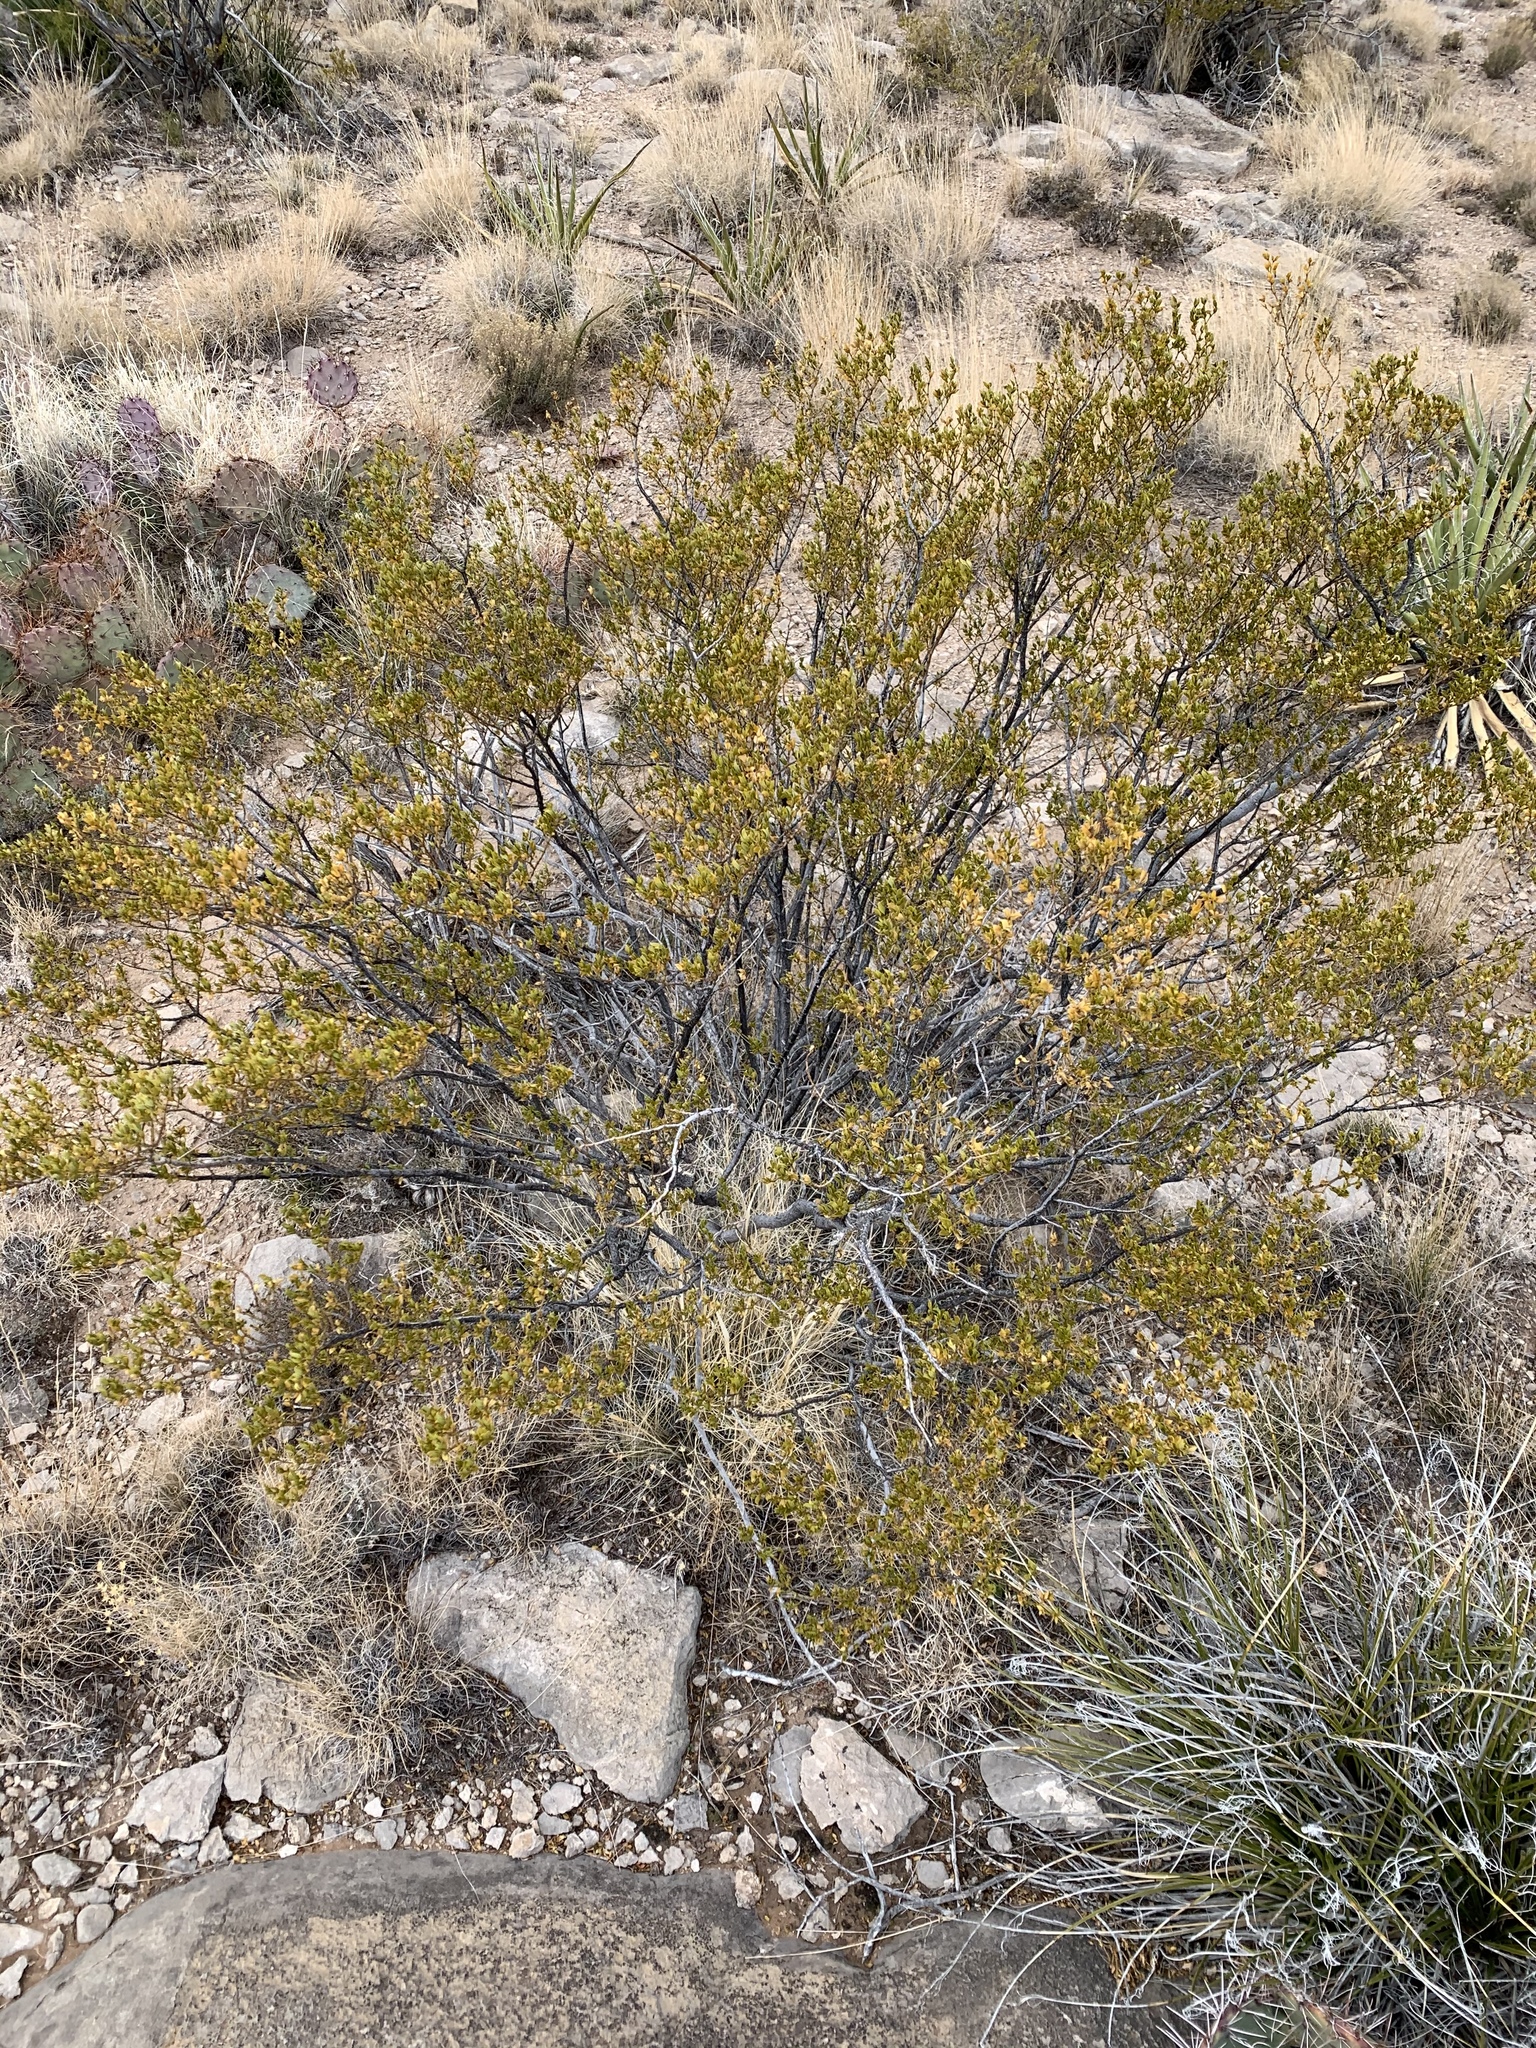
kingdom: Plantae
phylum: Tracheophyta
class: Magnoliopsida
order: Zygophyllales
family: Zygophyllaceae
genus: Larrea
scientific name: Larrea tridentata
